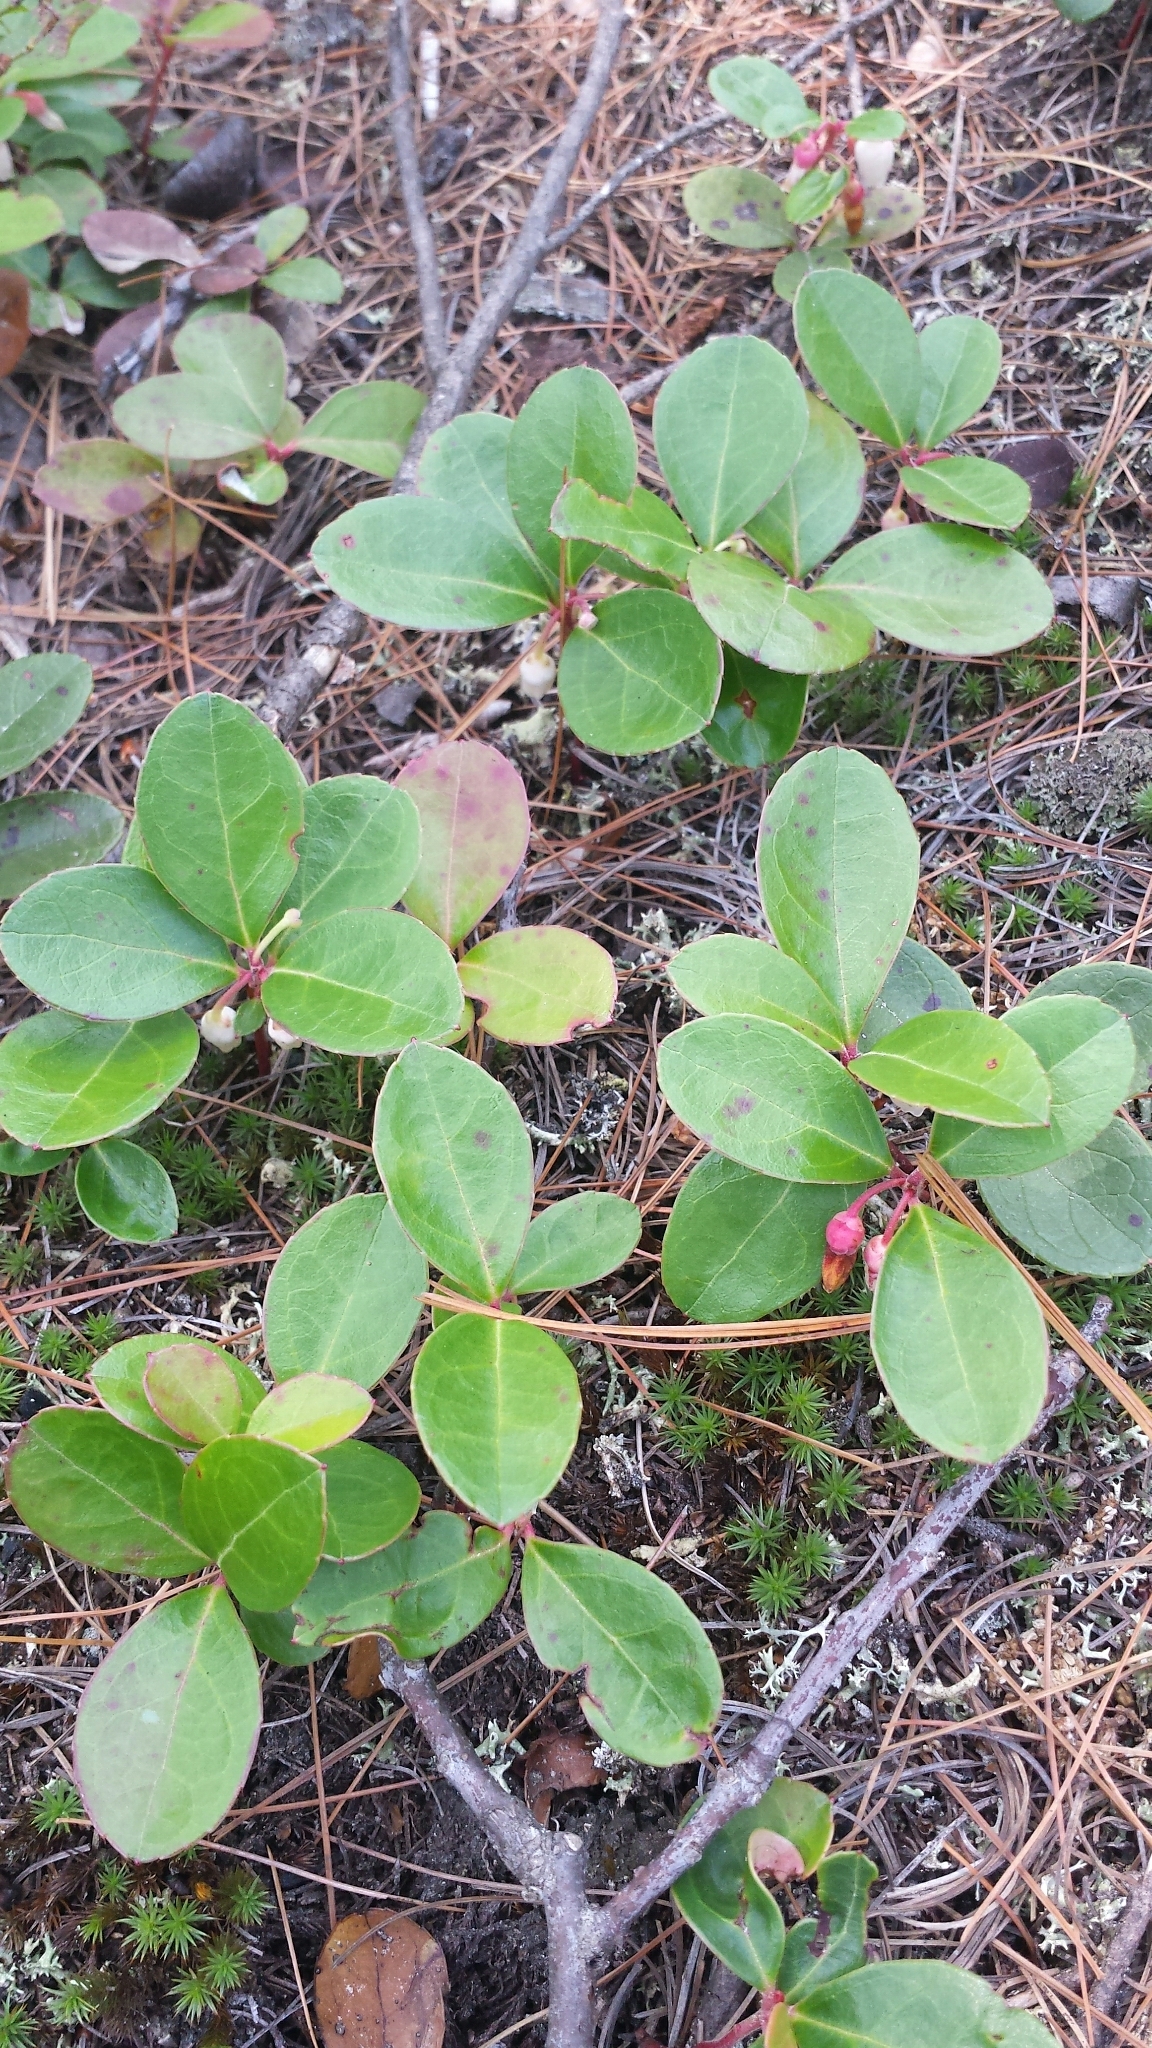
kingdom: Plantae
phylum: Tracheophyta
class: Magnoliopsida
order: Ericales
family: Ericaceae
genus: Gaultheria
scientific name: Gaultheria procumbens
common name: Checkerberry
